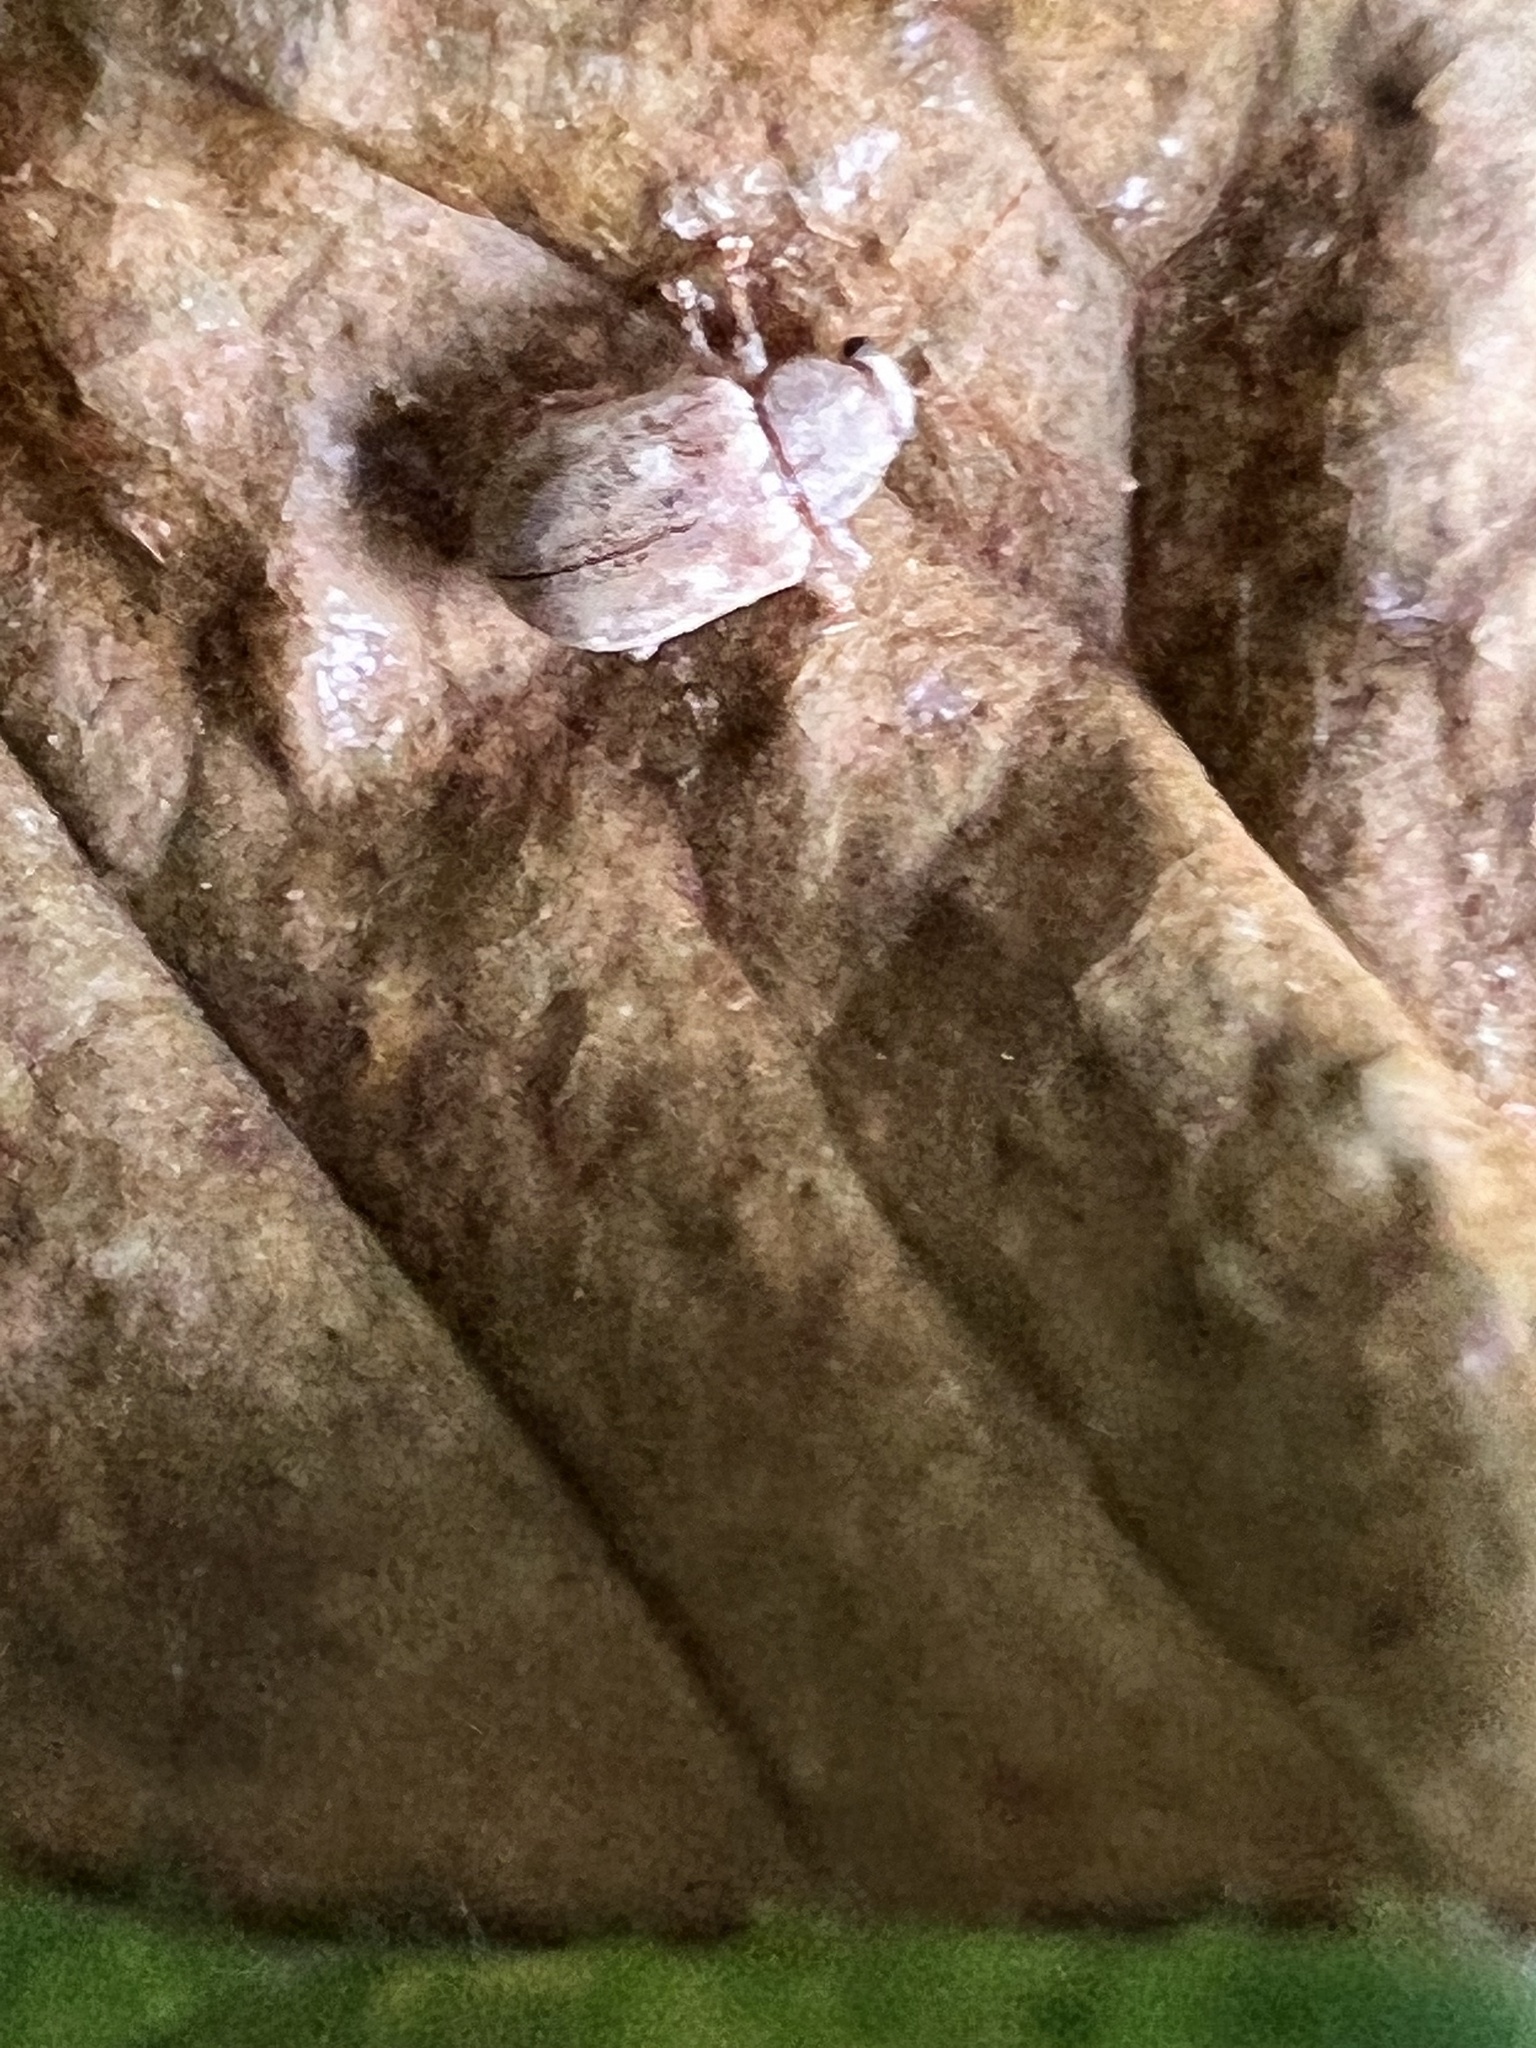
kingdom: Animalia
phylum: Arthropoda
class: Insecta
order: Coleoptera
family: Chrysomelidae
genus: Demotina
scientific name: Demotina modesta
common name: Leaf beetle
